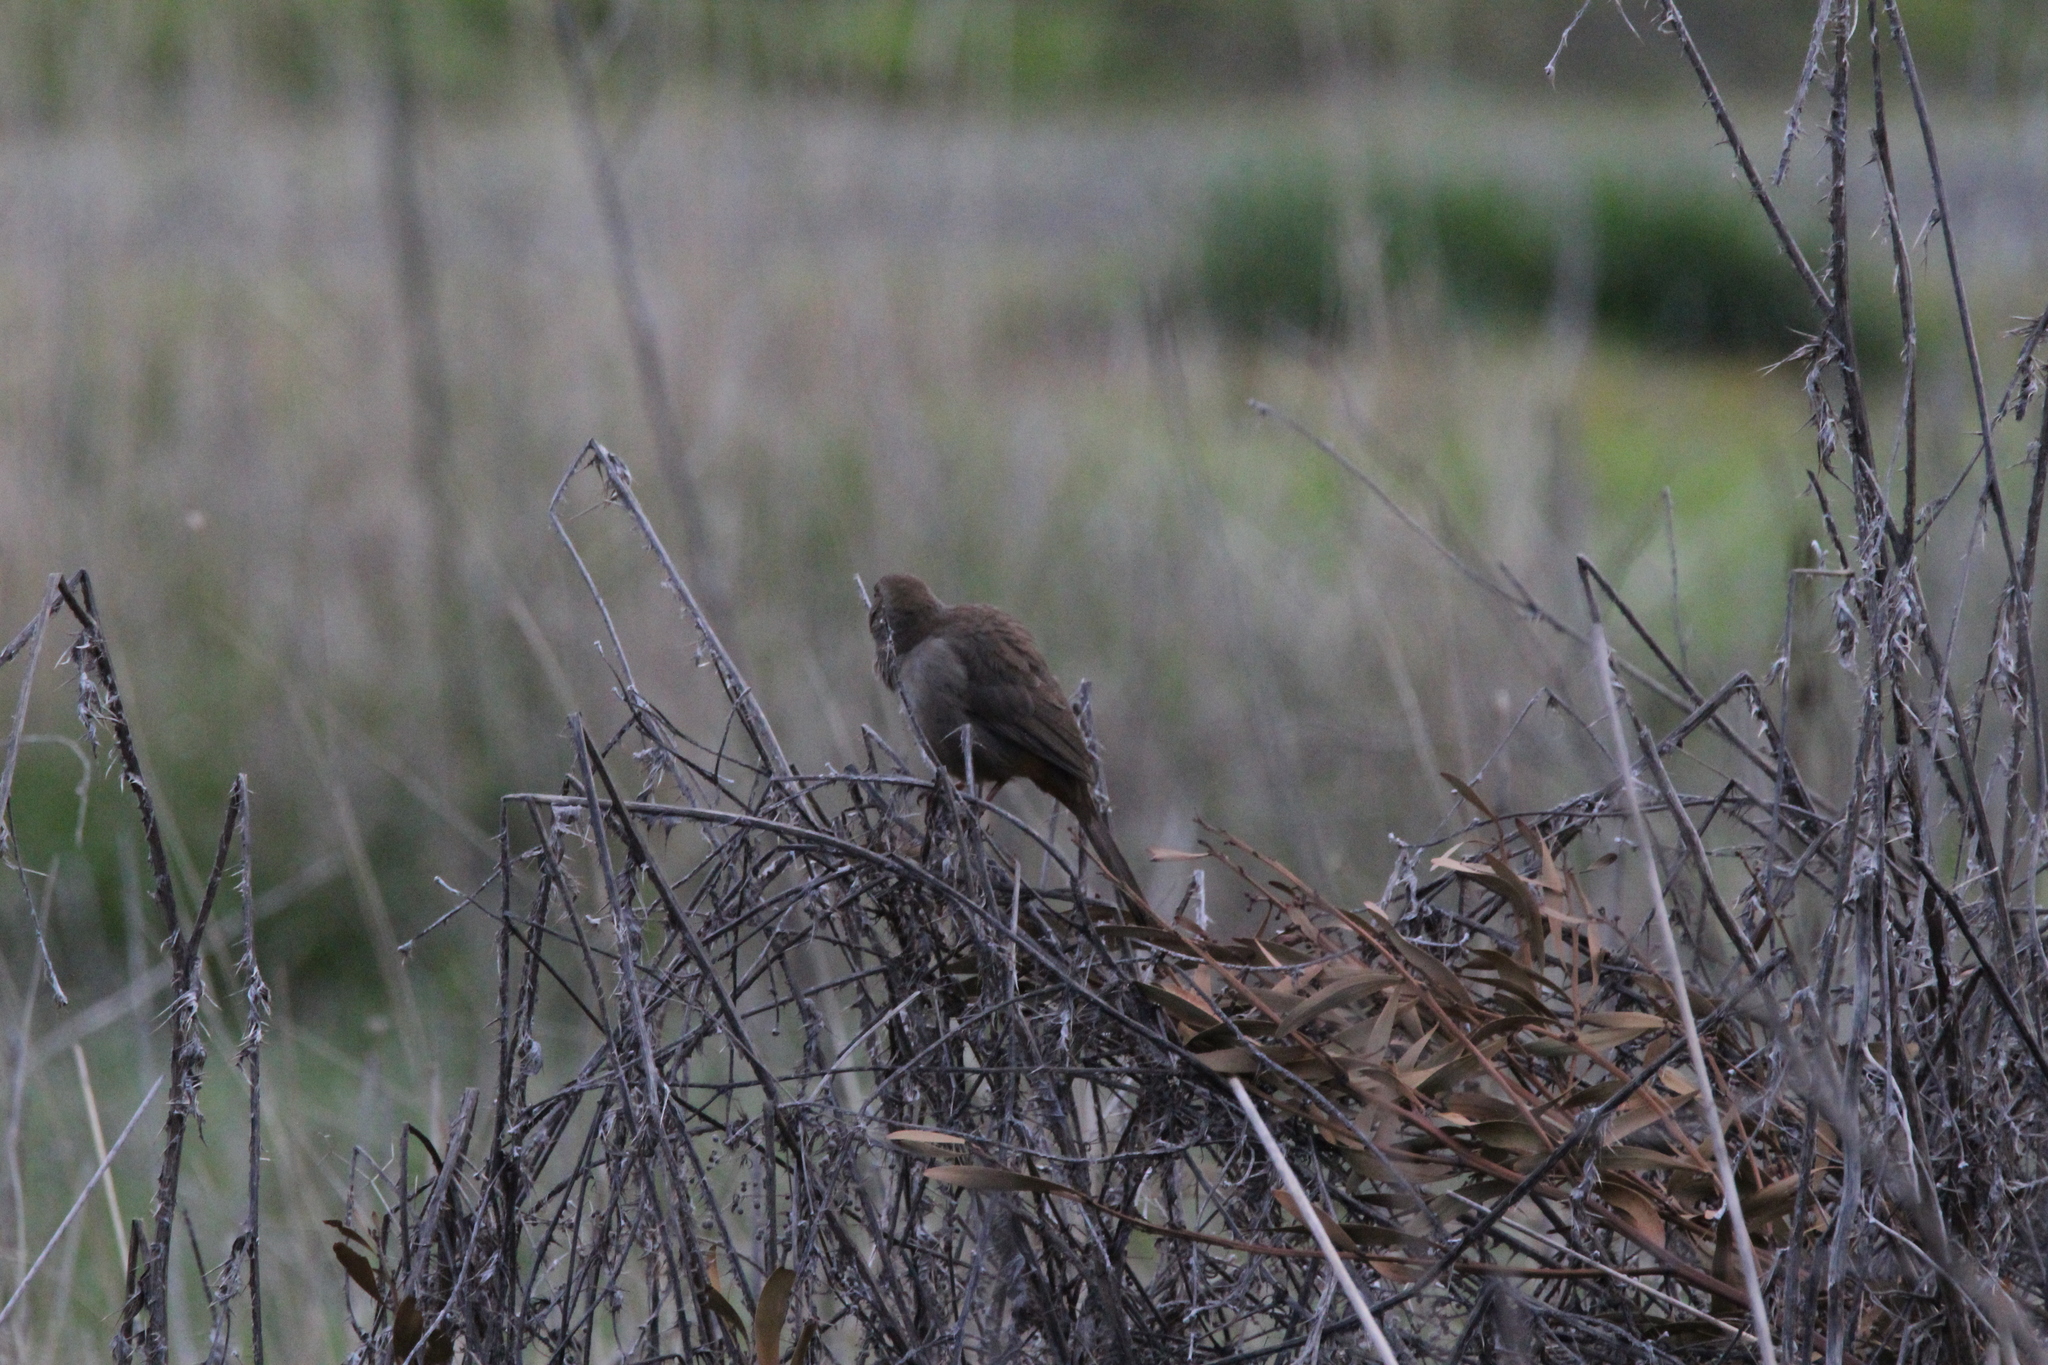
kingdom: Animalia
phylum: Chordata
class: Aves
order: Passeriformes
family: Passerellidae
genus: Melozone
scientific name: Melozone crissalis
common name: California towhee
